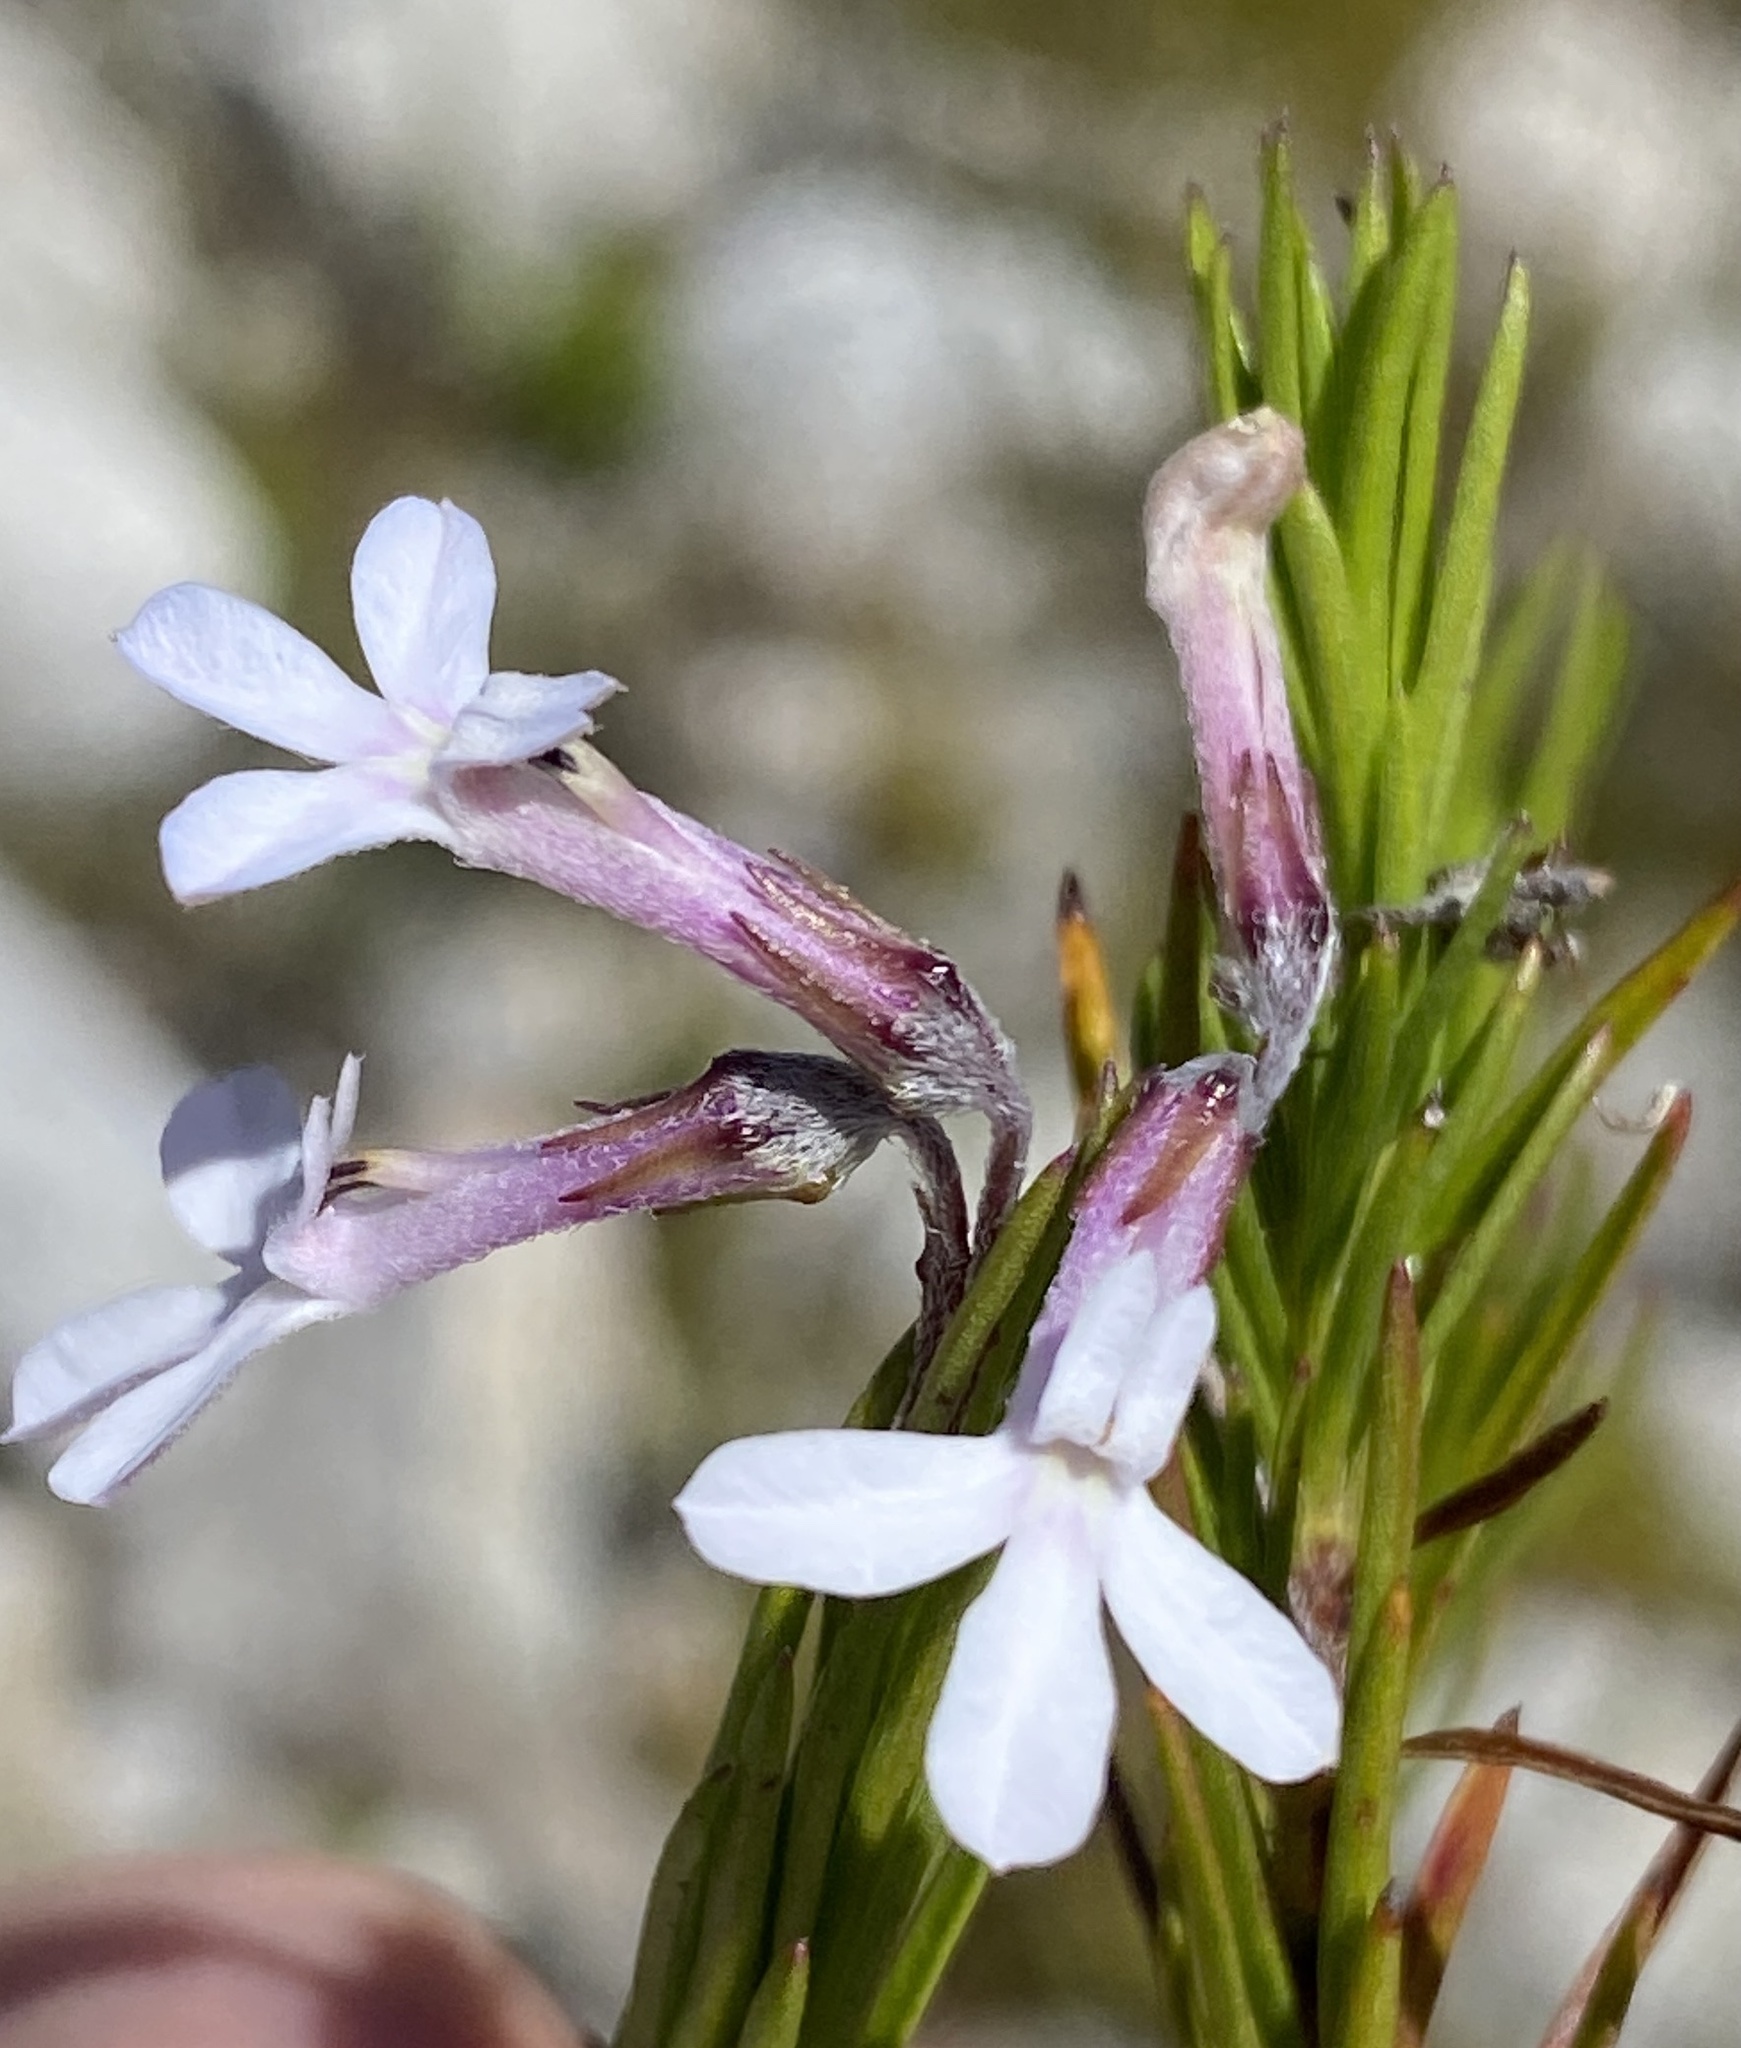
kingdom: Plantae
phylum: Tracheophyta
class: Magnoliopsida
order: Asterales
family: Campanulaceae
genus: Lobelia
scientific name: Lobelia pinifolia
